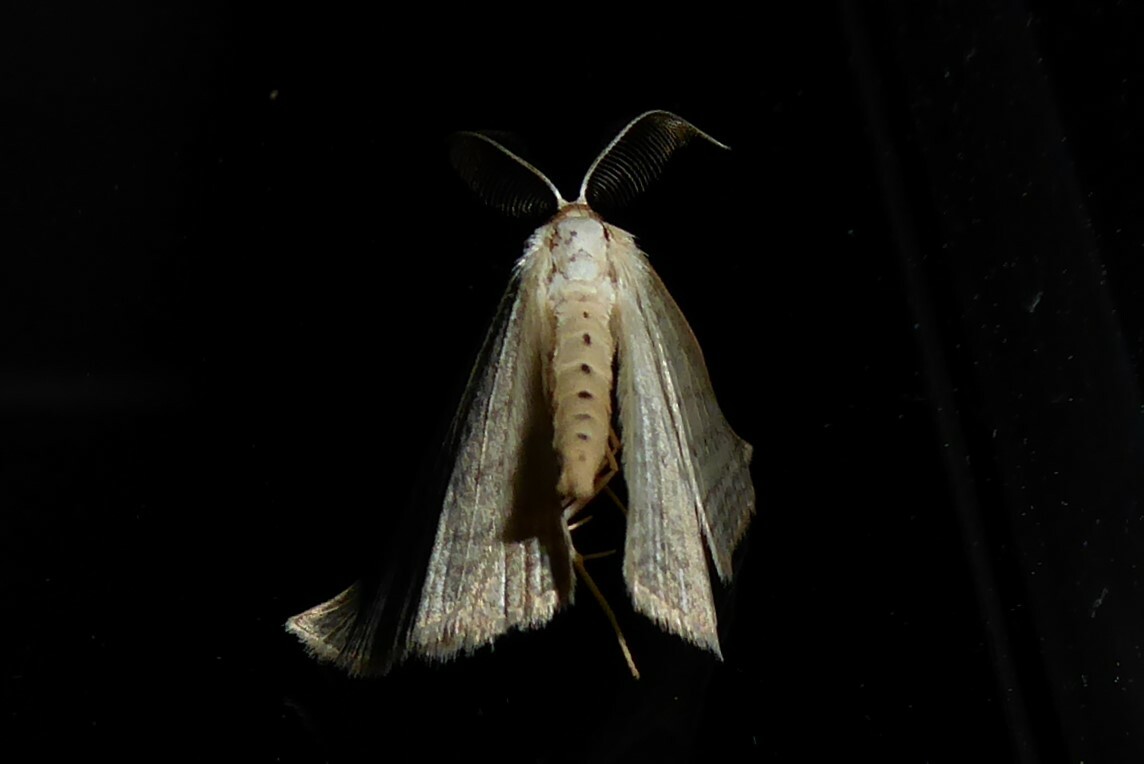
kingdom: Animalia
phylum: Arthropoda
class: Insecta
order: Lepidoptera
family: Geometridae
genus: Orthoclydon
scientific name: Orthoclydon praefectata
